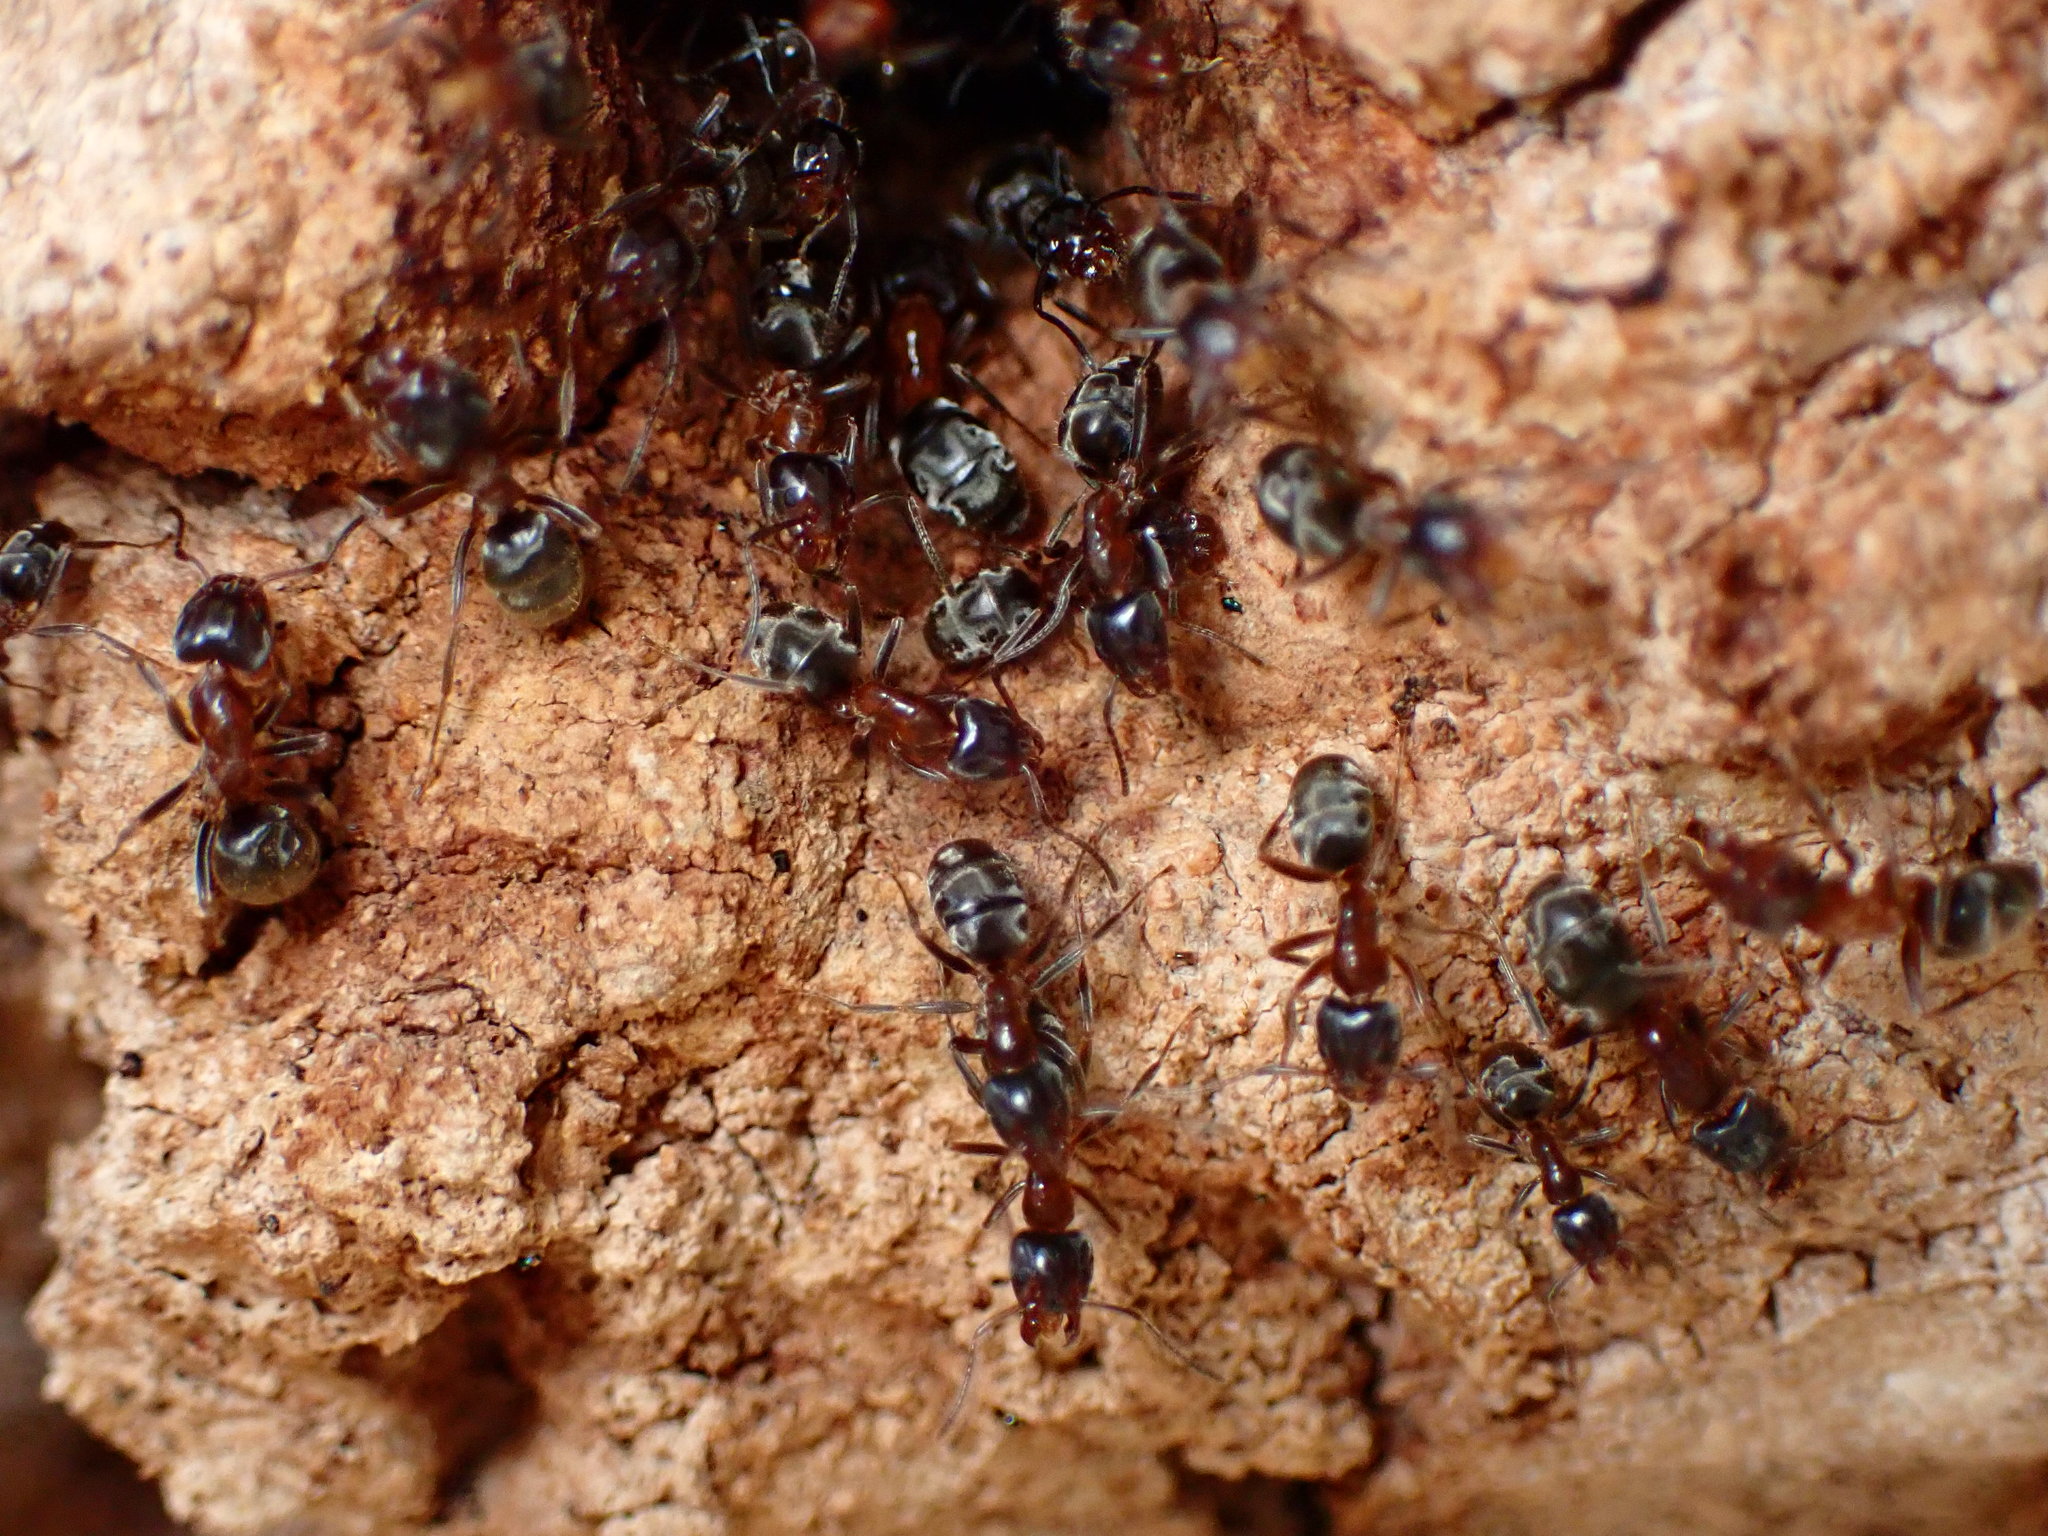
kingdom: Animalia
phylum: Arthropoda
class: Insecta
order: Hymenoptera
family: Formicidae
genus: Liometopum
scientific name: Liometopum occidentale
